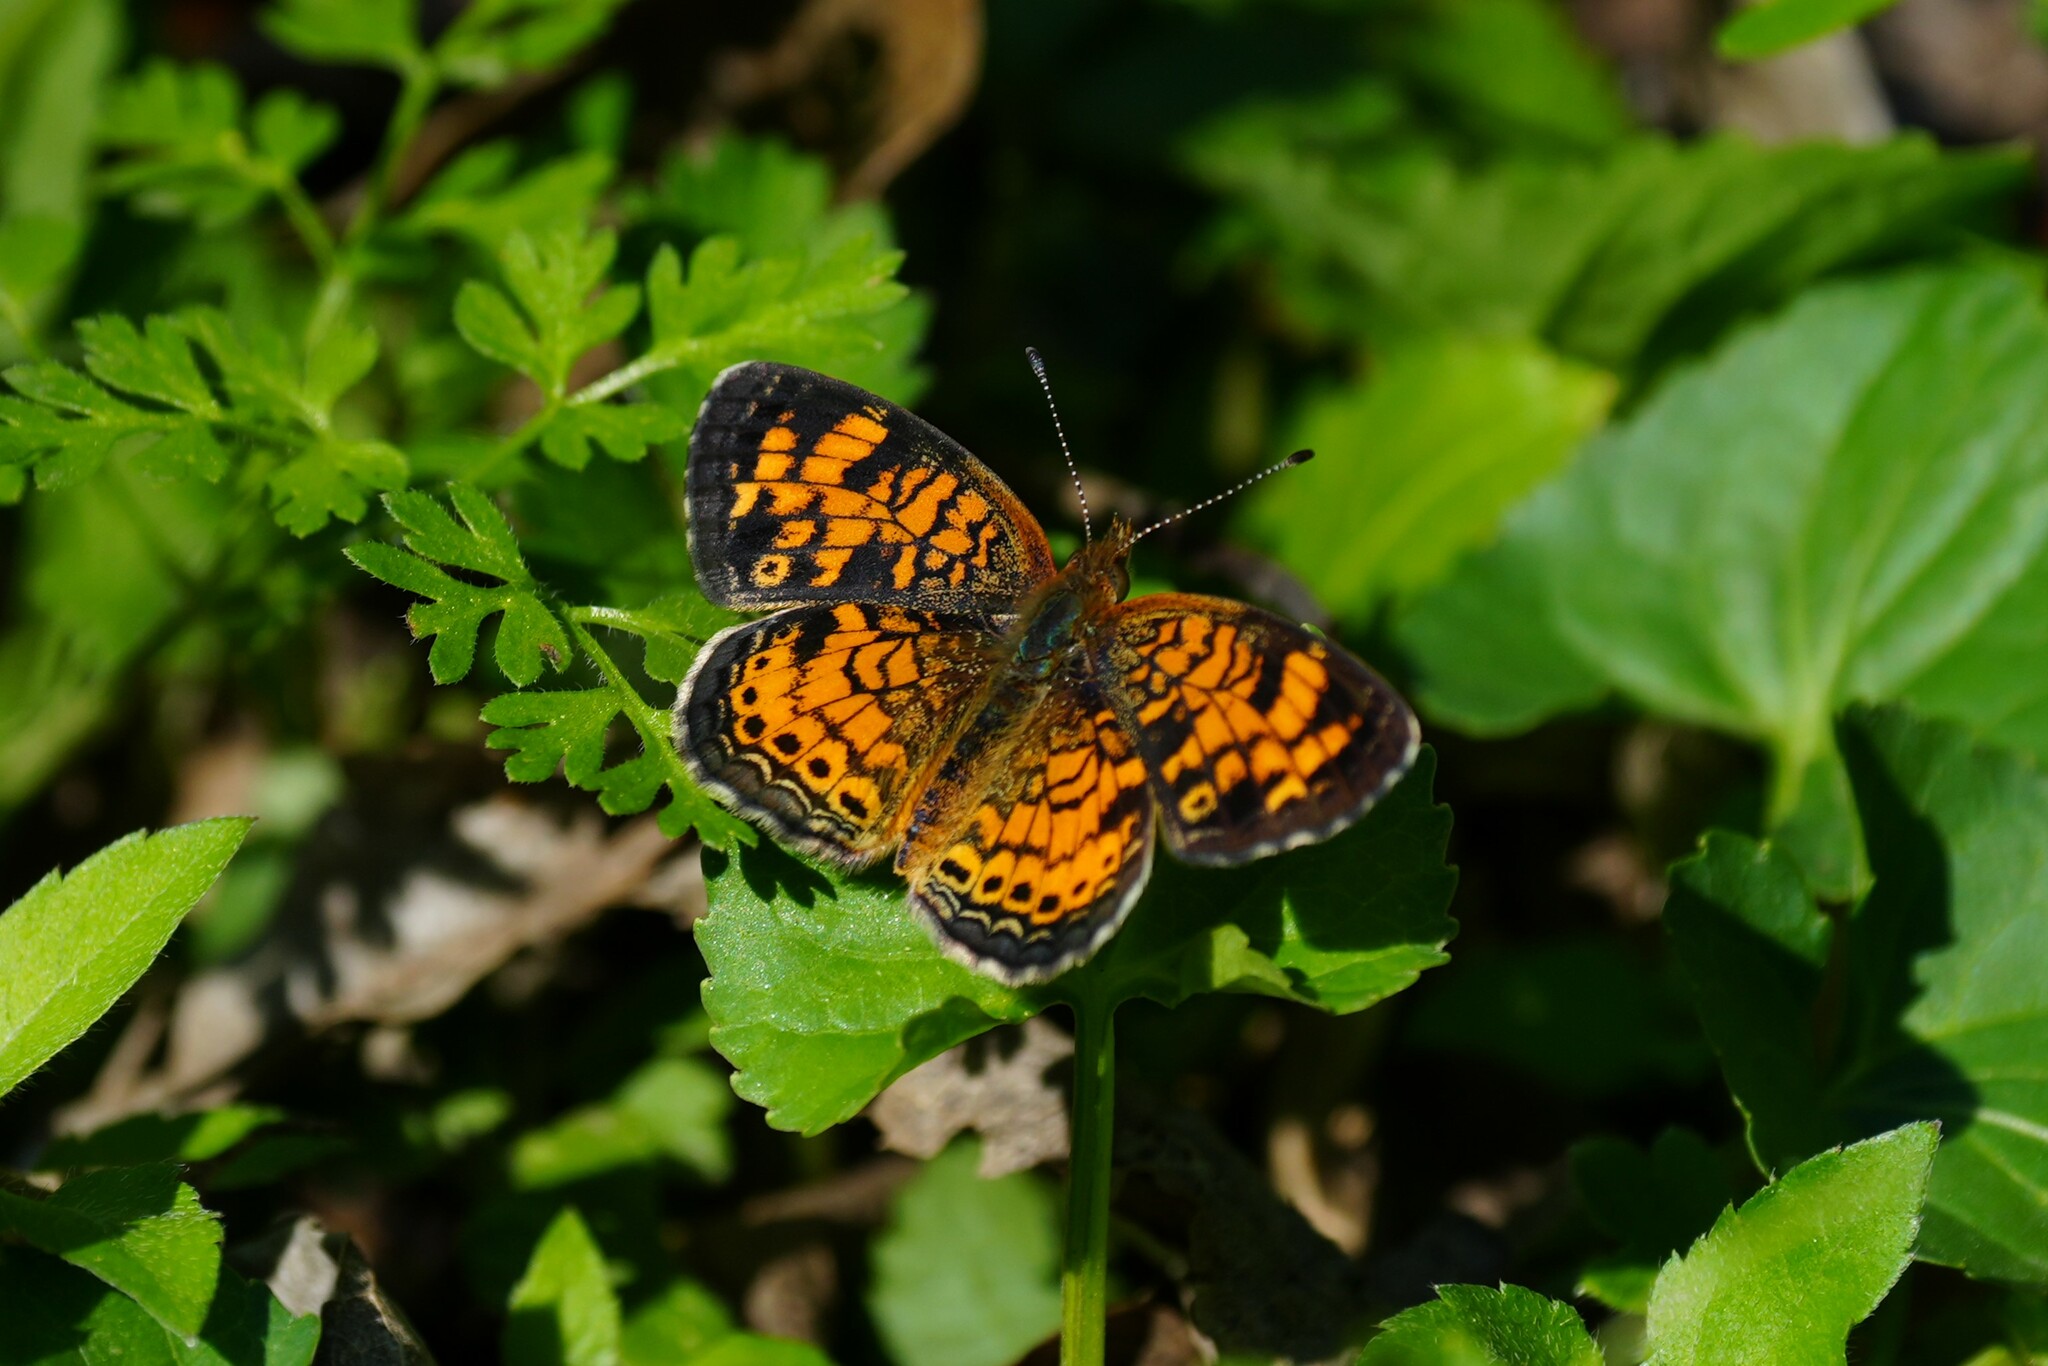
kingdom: Animalia
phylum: Arthropoda
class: Insecta
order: Lepidoptera
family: Nymphalidae
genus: Phyciodes
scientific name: Phyciodes tharos
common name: Pearl crescent
